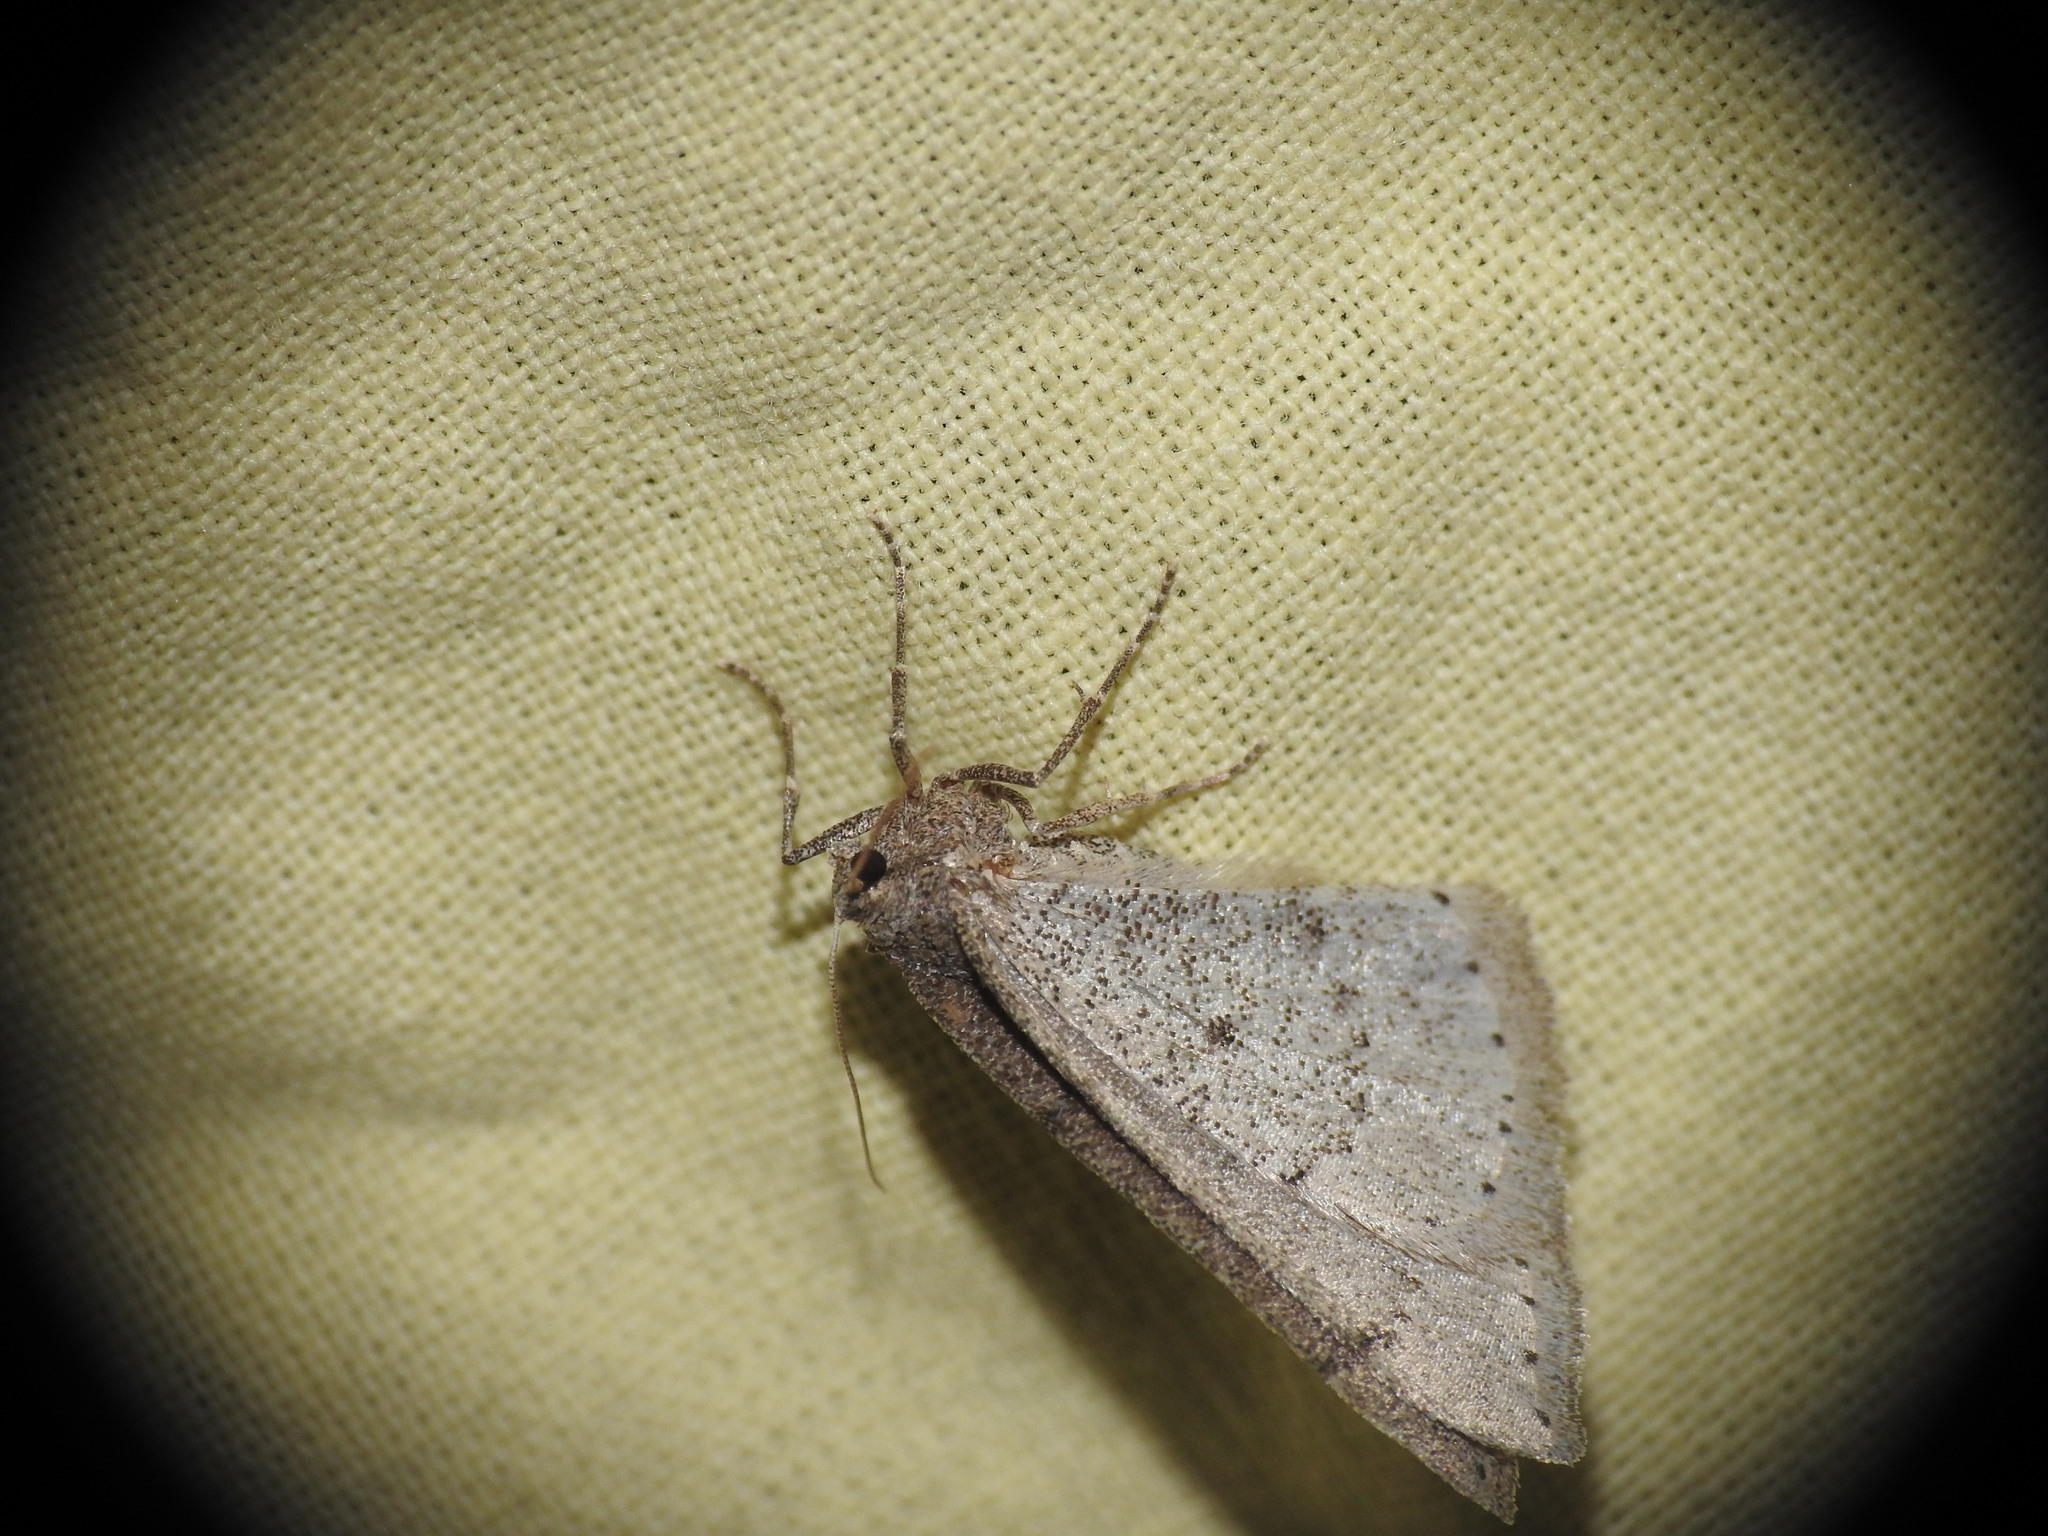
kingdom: Animalia
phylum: Arthropoda
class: Insecta
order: Lepidoptera
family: Geometridae
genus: Aleucis
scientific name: Aleucis distinctata
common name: Sloe carpet
